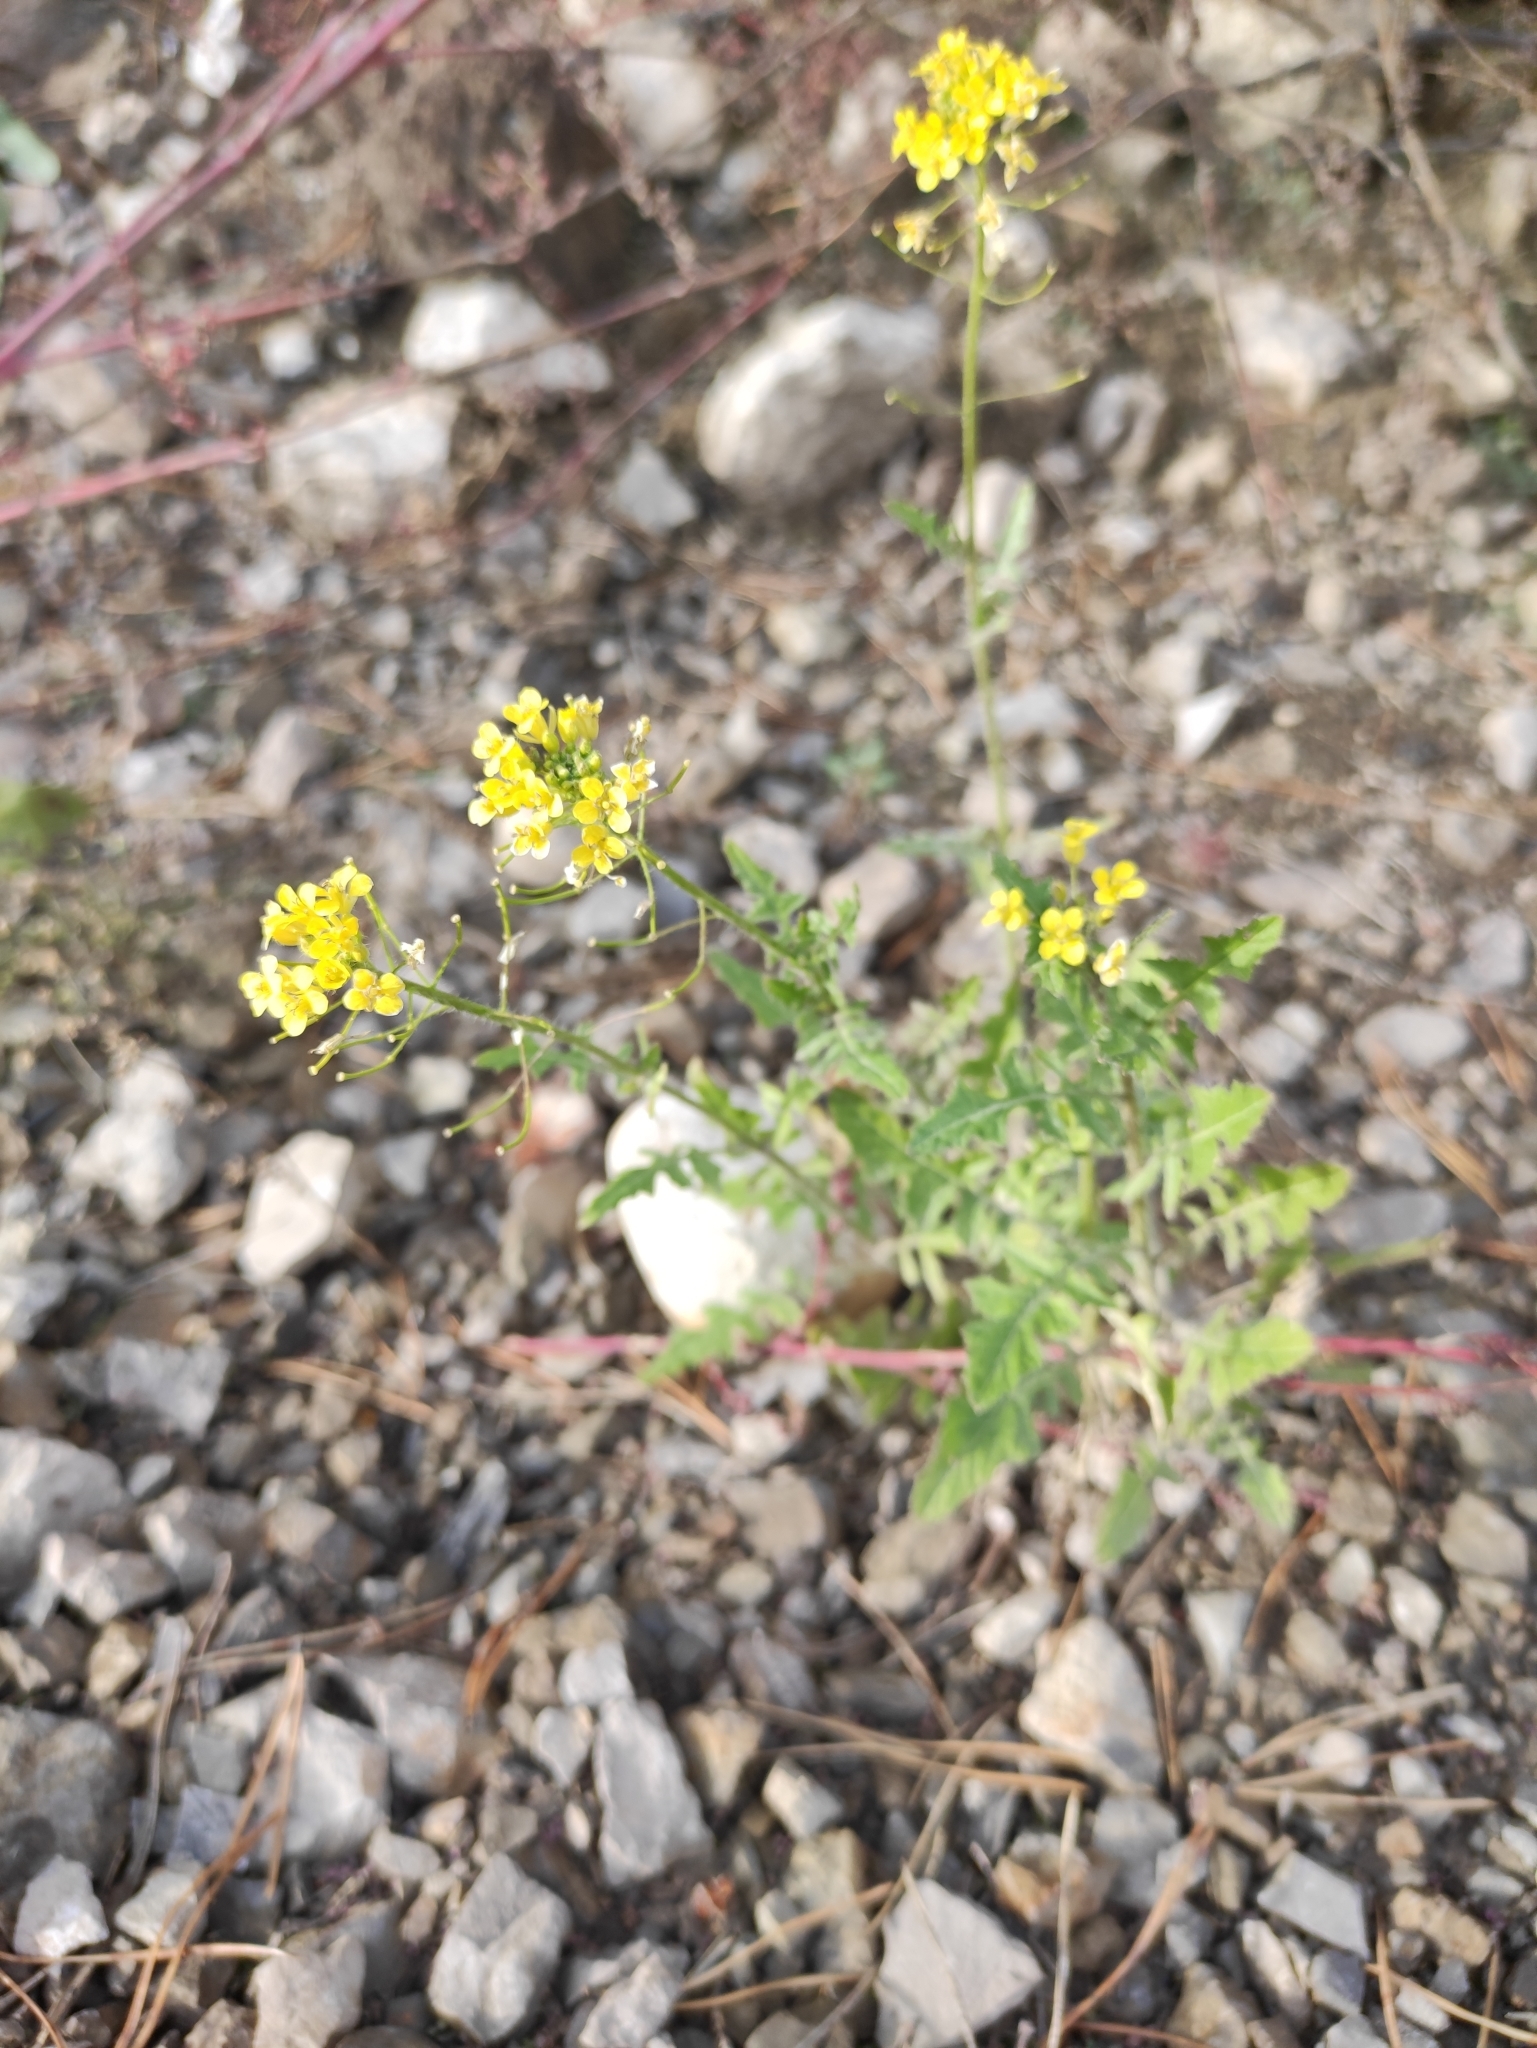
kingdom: Plantae
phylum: Tracheophyta
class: Magnoliopsida
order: Brassicales
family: Brassicaceae
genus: Sisymbrium
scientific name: Sisymbrium loeselii
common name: False london-rocket
